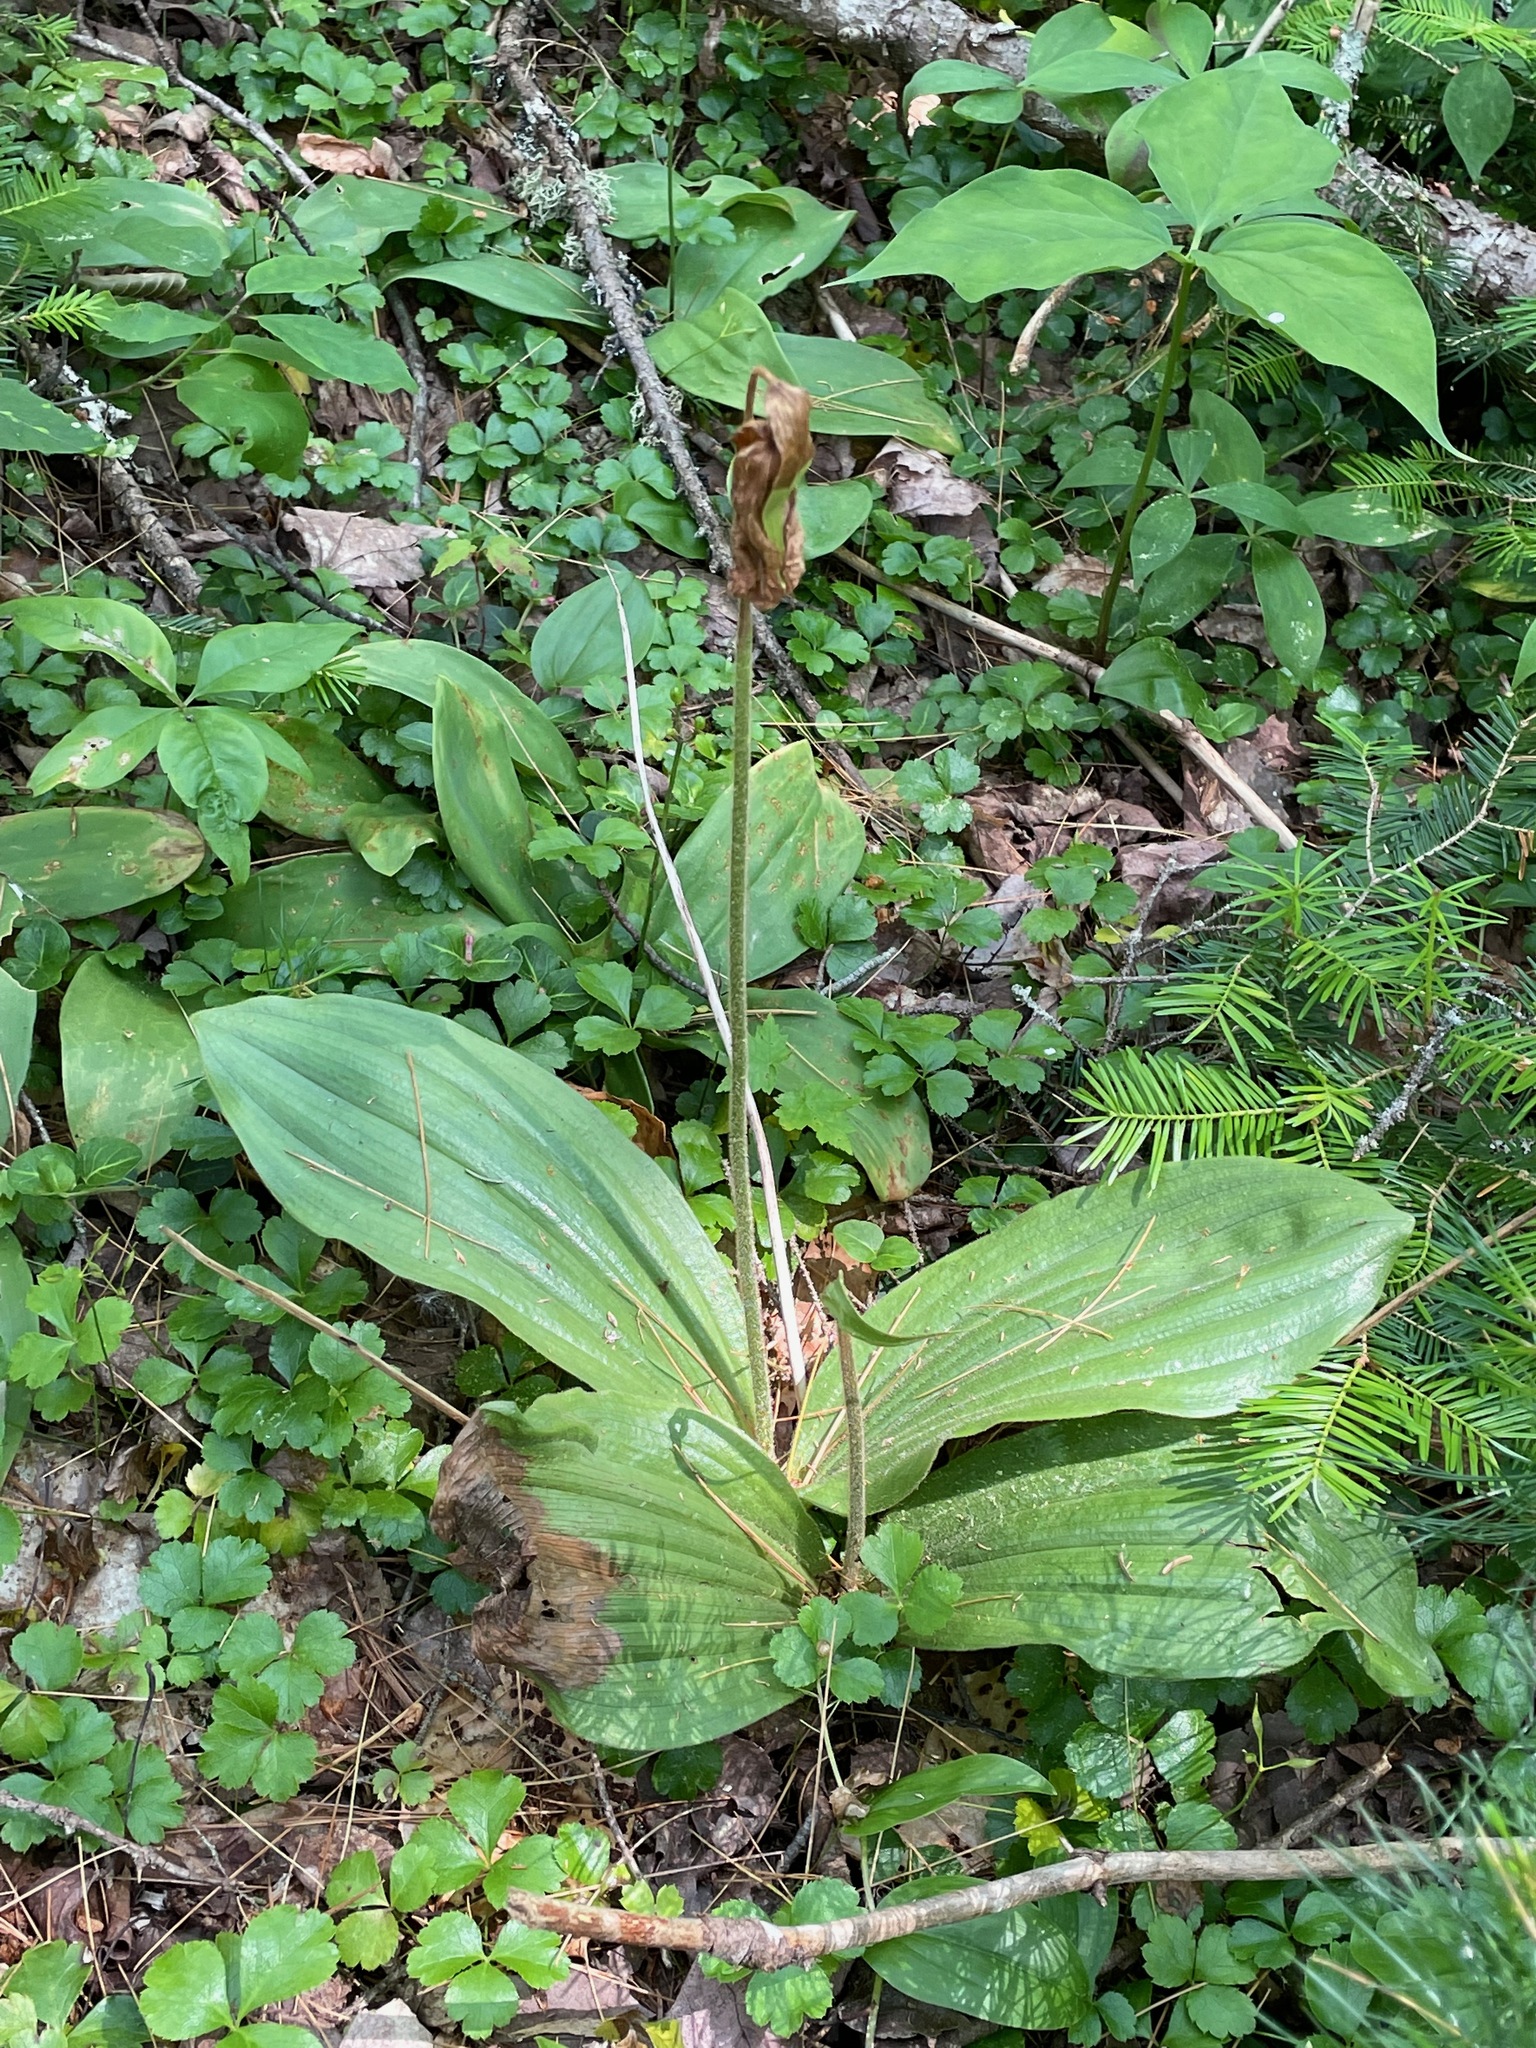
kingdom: Plantae
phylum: Tracheophyta
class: Liliopsida
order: Asparagales
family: Orchidaceae
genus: Cypripedium
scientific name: Cypripedium acaule
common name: Pink lady's-slipper
